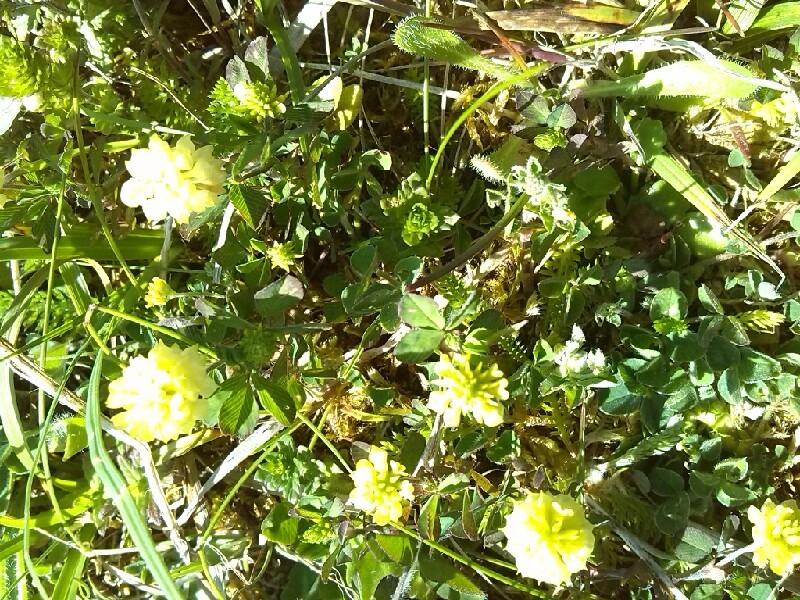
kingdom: Plantae
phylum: Tracheophyta
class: Magnoliopsida
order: Fabales
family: Fabaceae
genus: Trifolium
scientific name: Trifolium campestre
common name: Field clover
